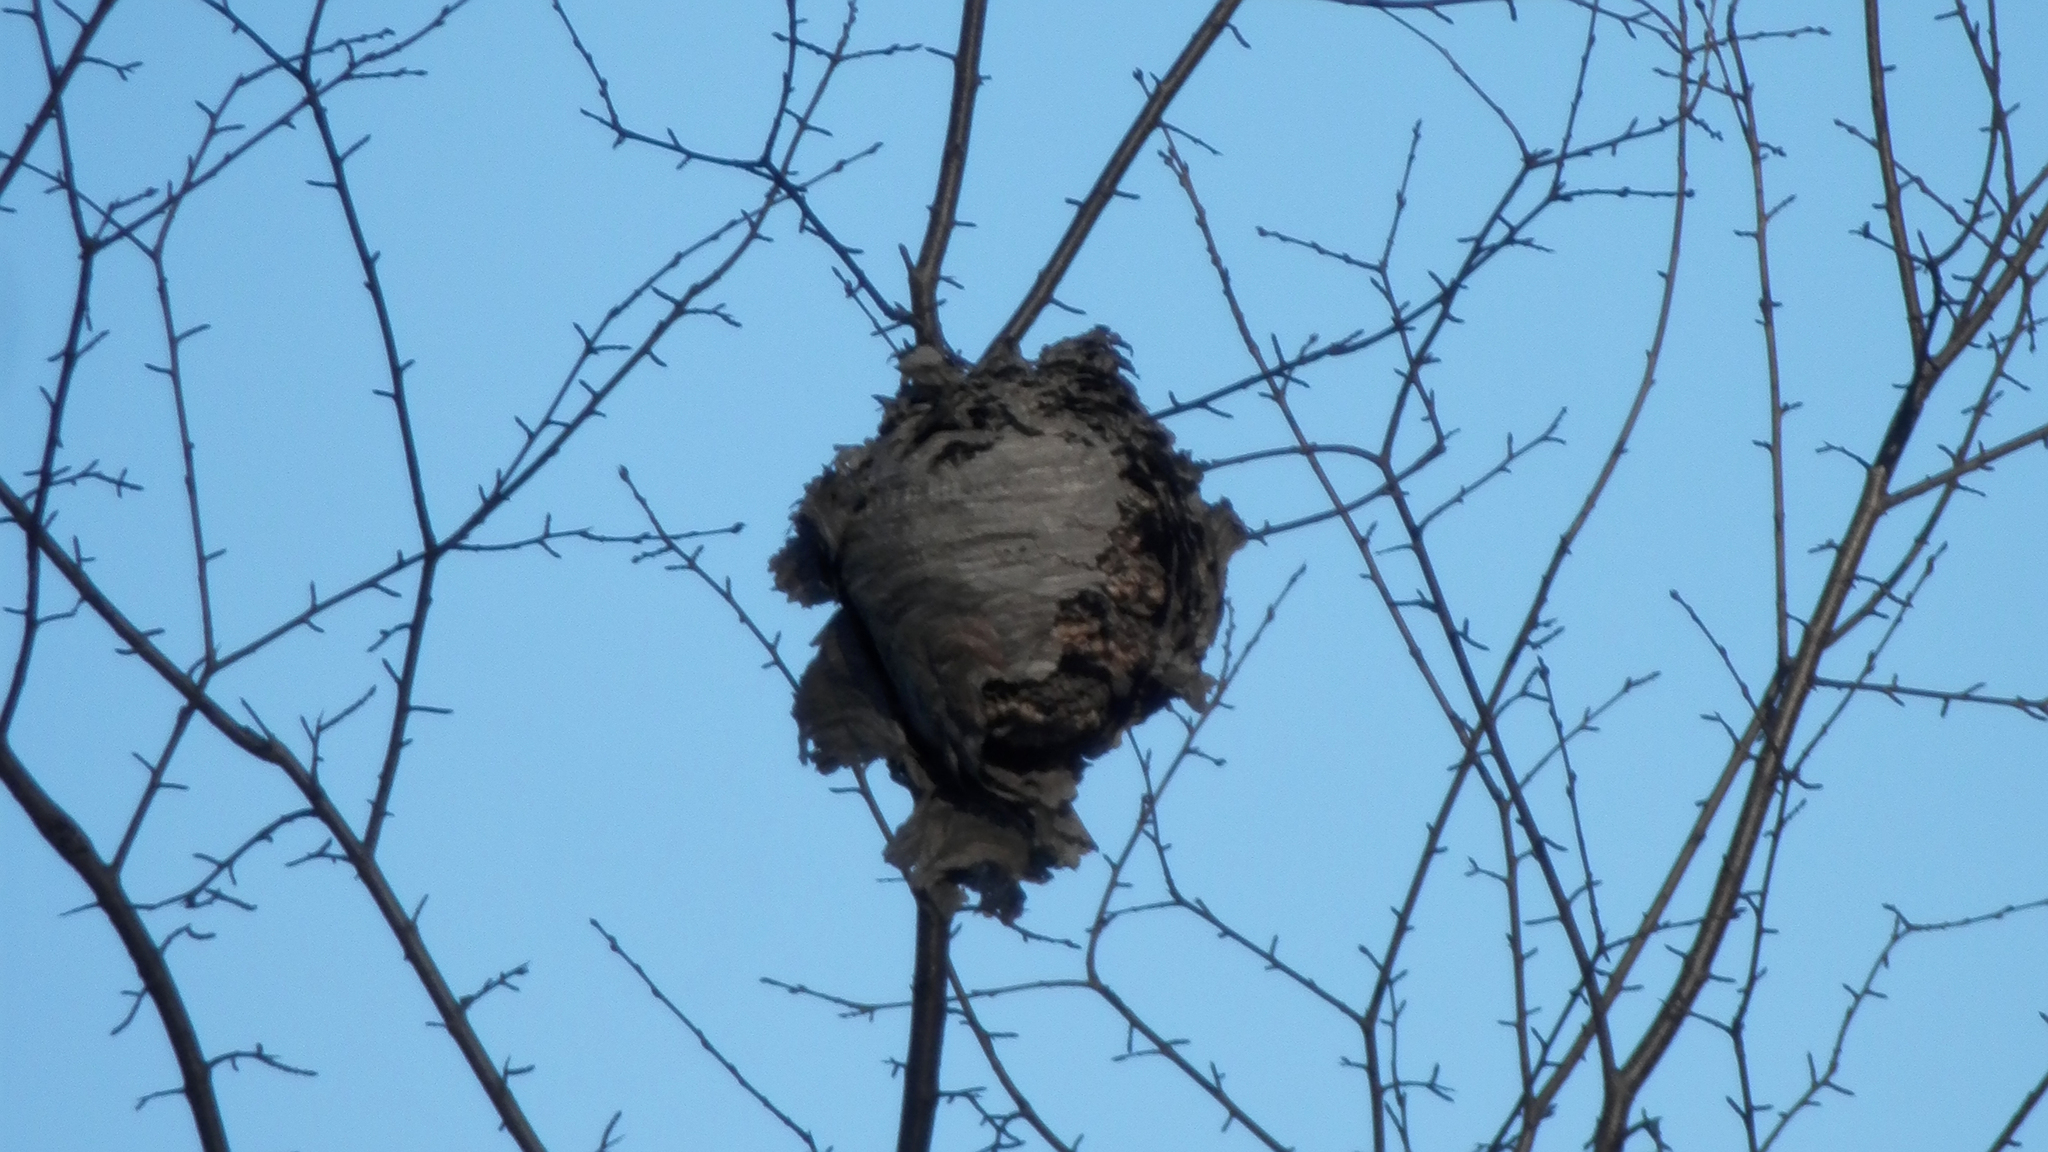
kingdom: Animalia
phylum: Arthropoda
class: Insecta
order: Hymenoptera
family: Vespidae
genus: Dolichovespula
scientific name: Dolichovespula
